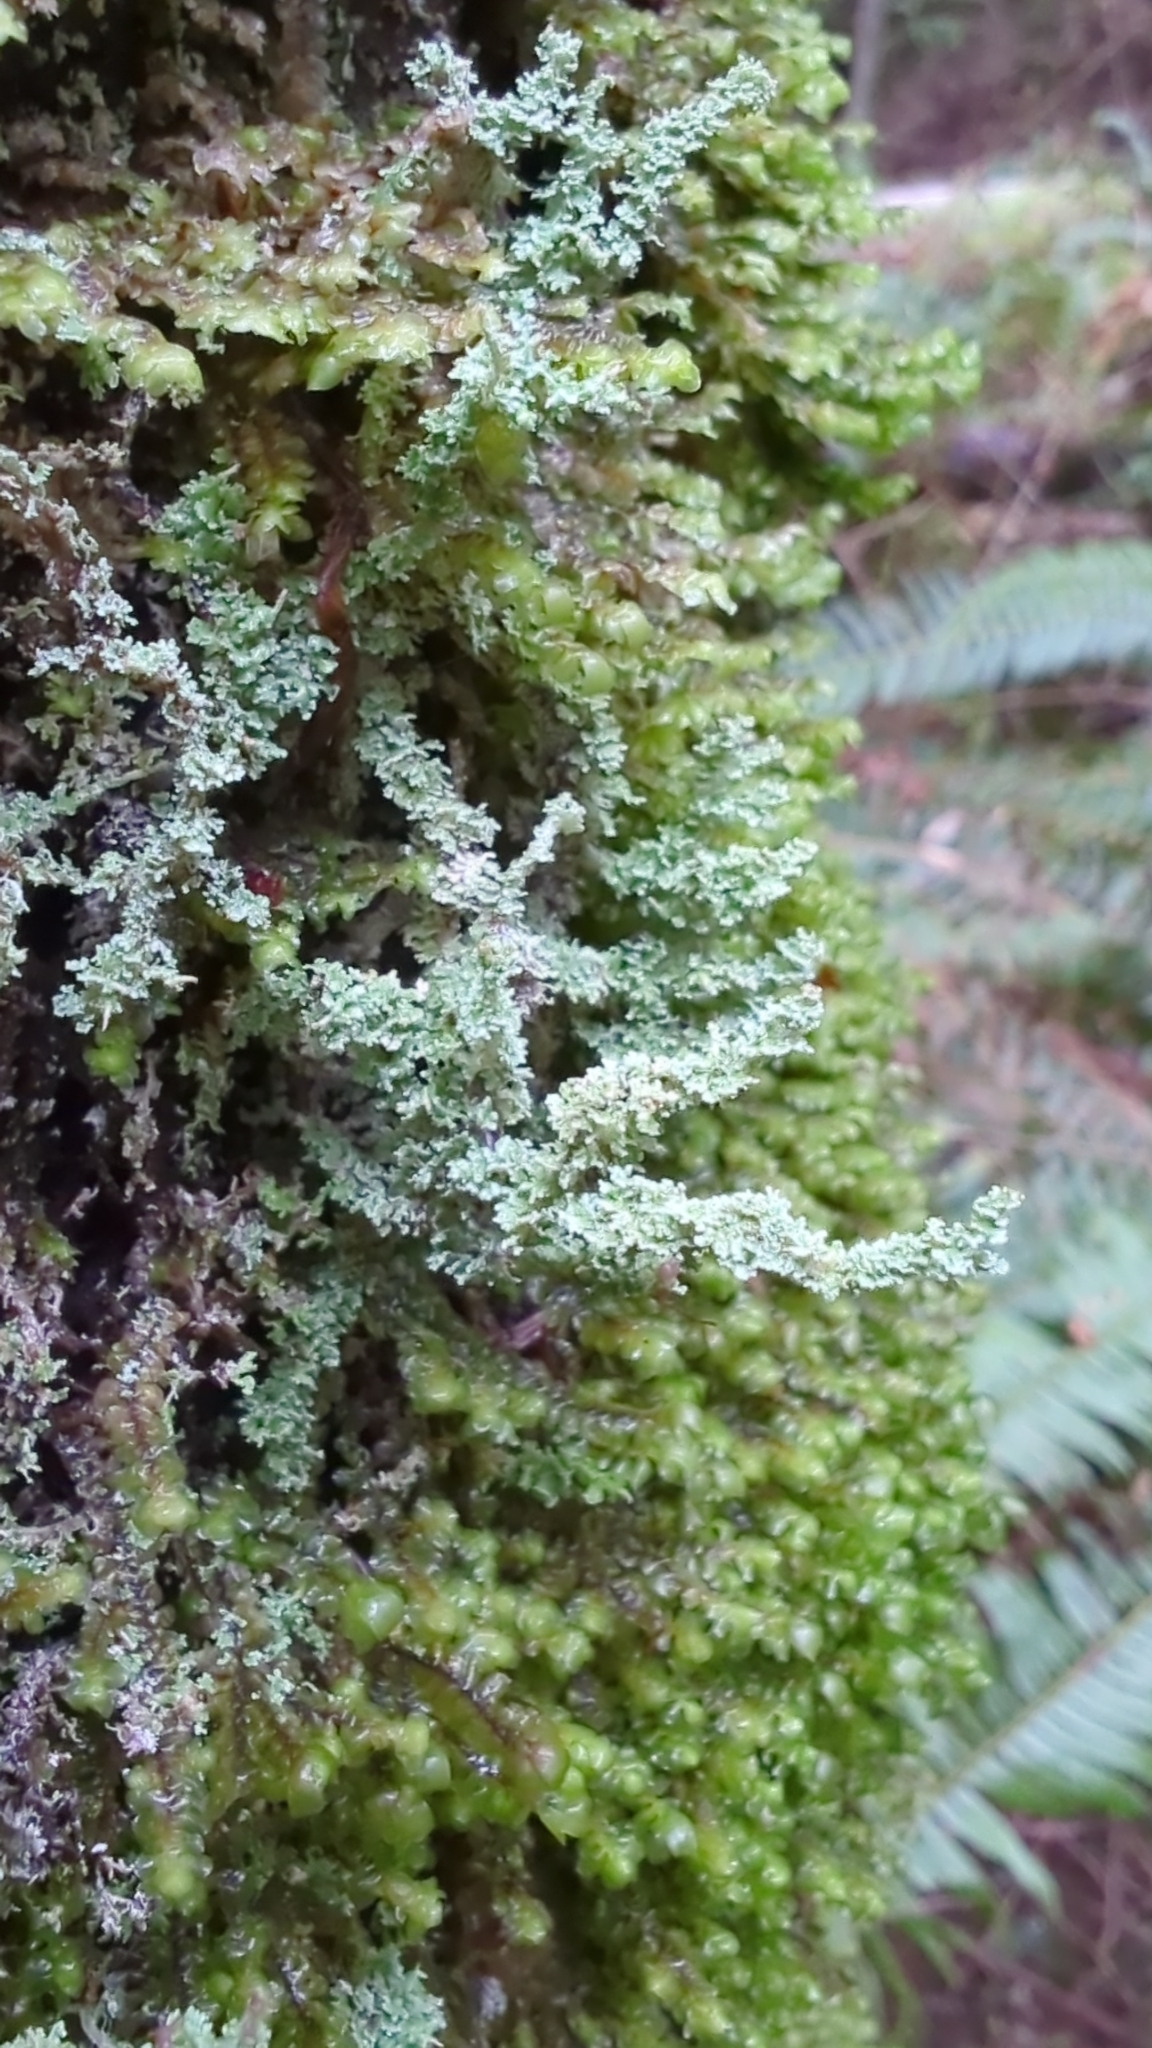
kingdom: Fungi
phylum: Ascomycota
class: Lecanoromycetes
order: Lecanorales
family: Cladoniaceae
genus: Cladonia
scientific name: Cladonia squamosa
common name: Dragon horn
